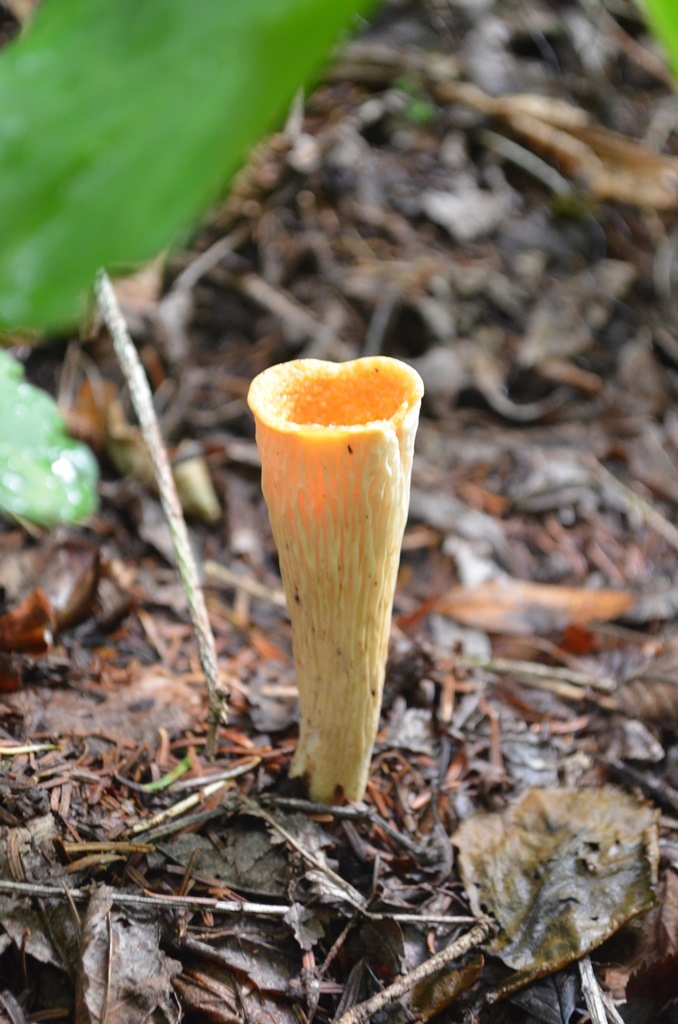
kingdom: Fungi
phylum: Basidiomycota
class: Agaricomycetes
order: Gomphales
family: Gomphaceae
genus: Turbinellus
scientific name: Turbinellus floccosus
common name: Scaly chanterelle
